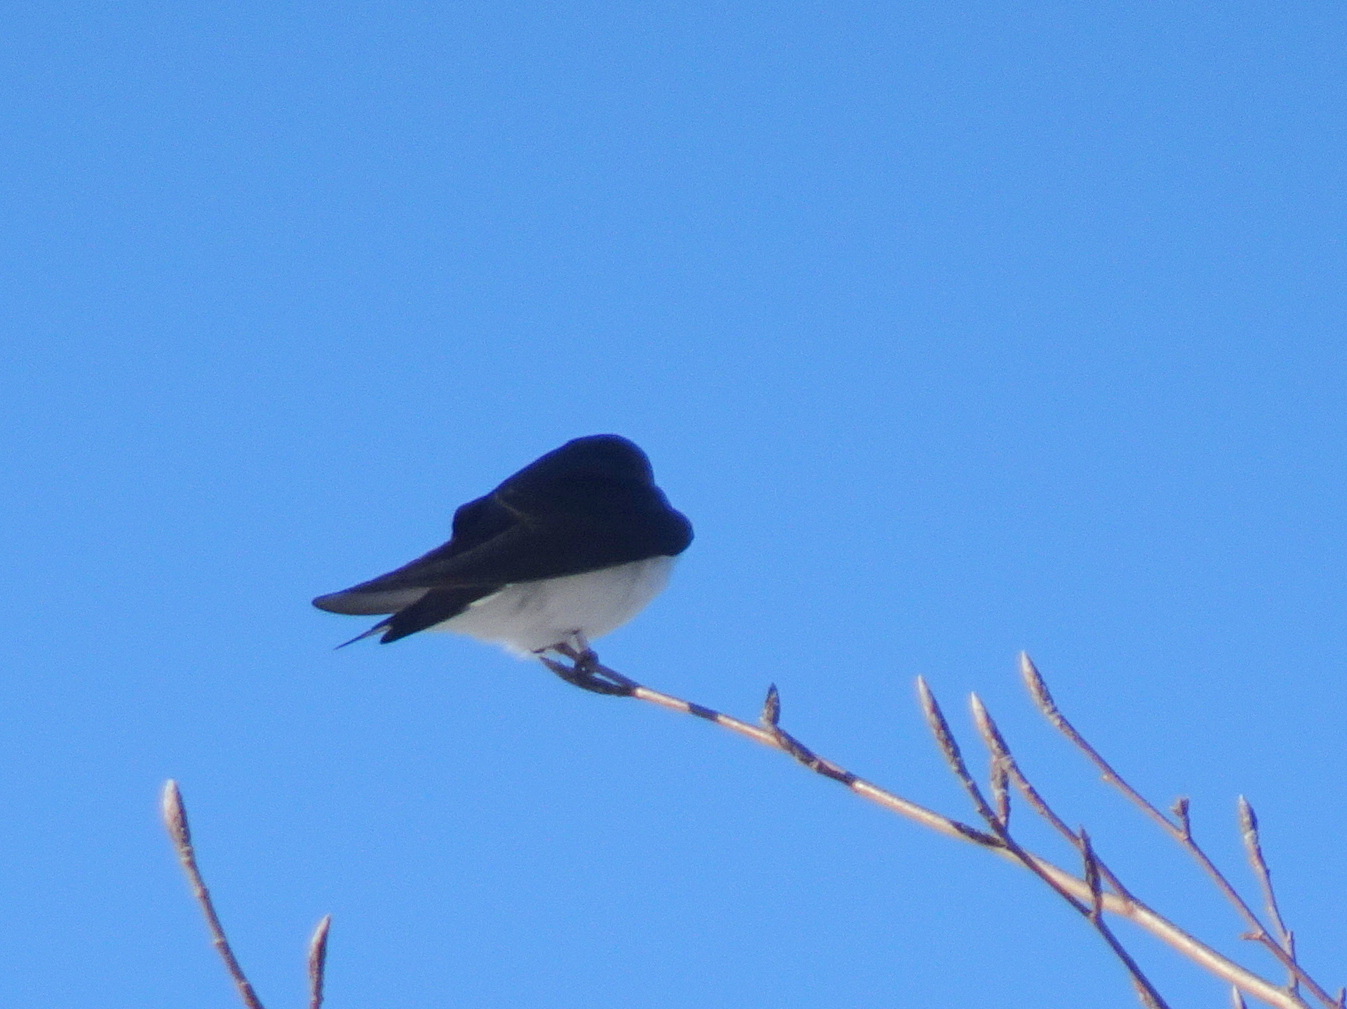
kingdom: Animalia
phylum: Chordata
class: Aves
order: Passeriformes
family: Hirundinidae
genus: Tachycineta
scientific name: Tachycineta bicolor
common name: Tree swallow
